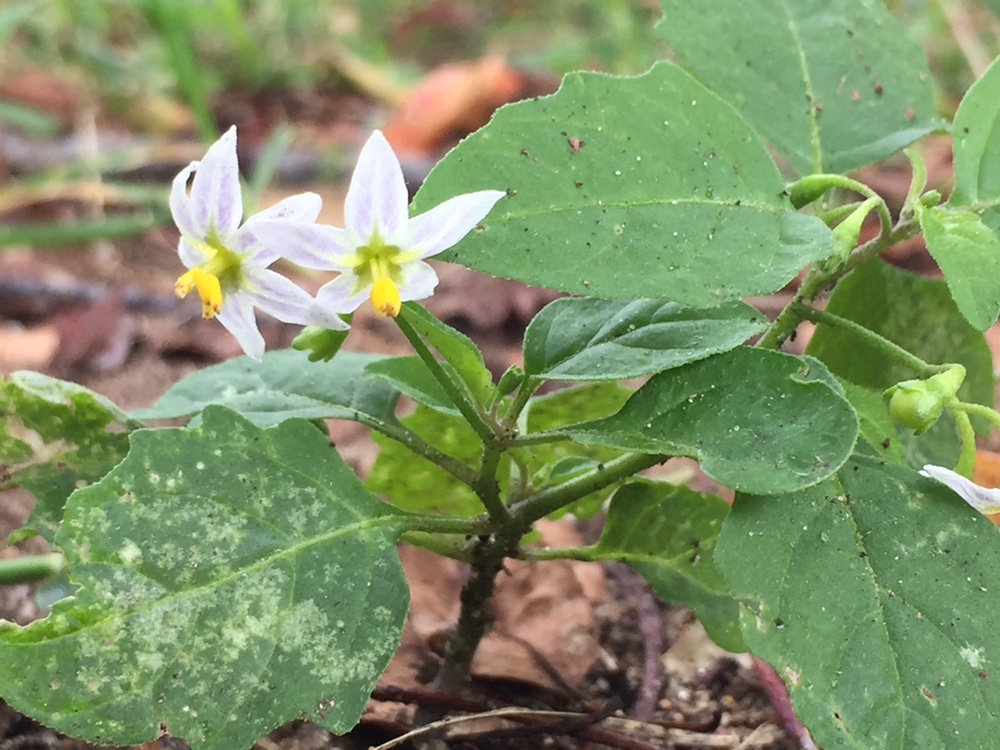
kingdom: Plantae
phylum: Tracheophyta
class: Magnoliopsida
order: Solanales
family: Solanaceae
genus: Solanum
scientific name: Solanum emulans
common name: Eastern black nightshade
